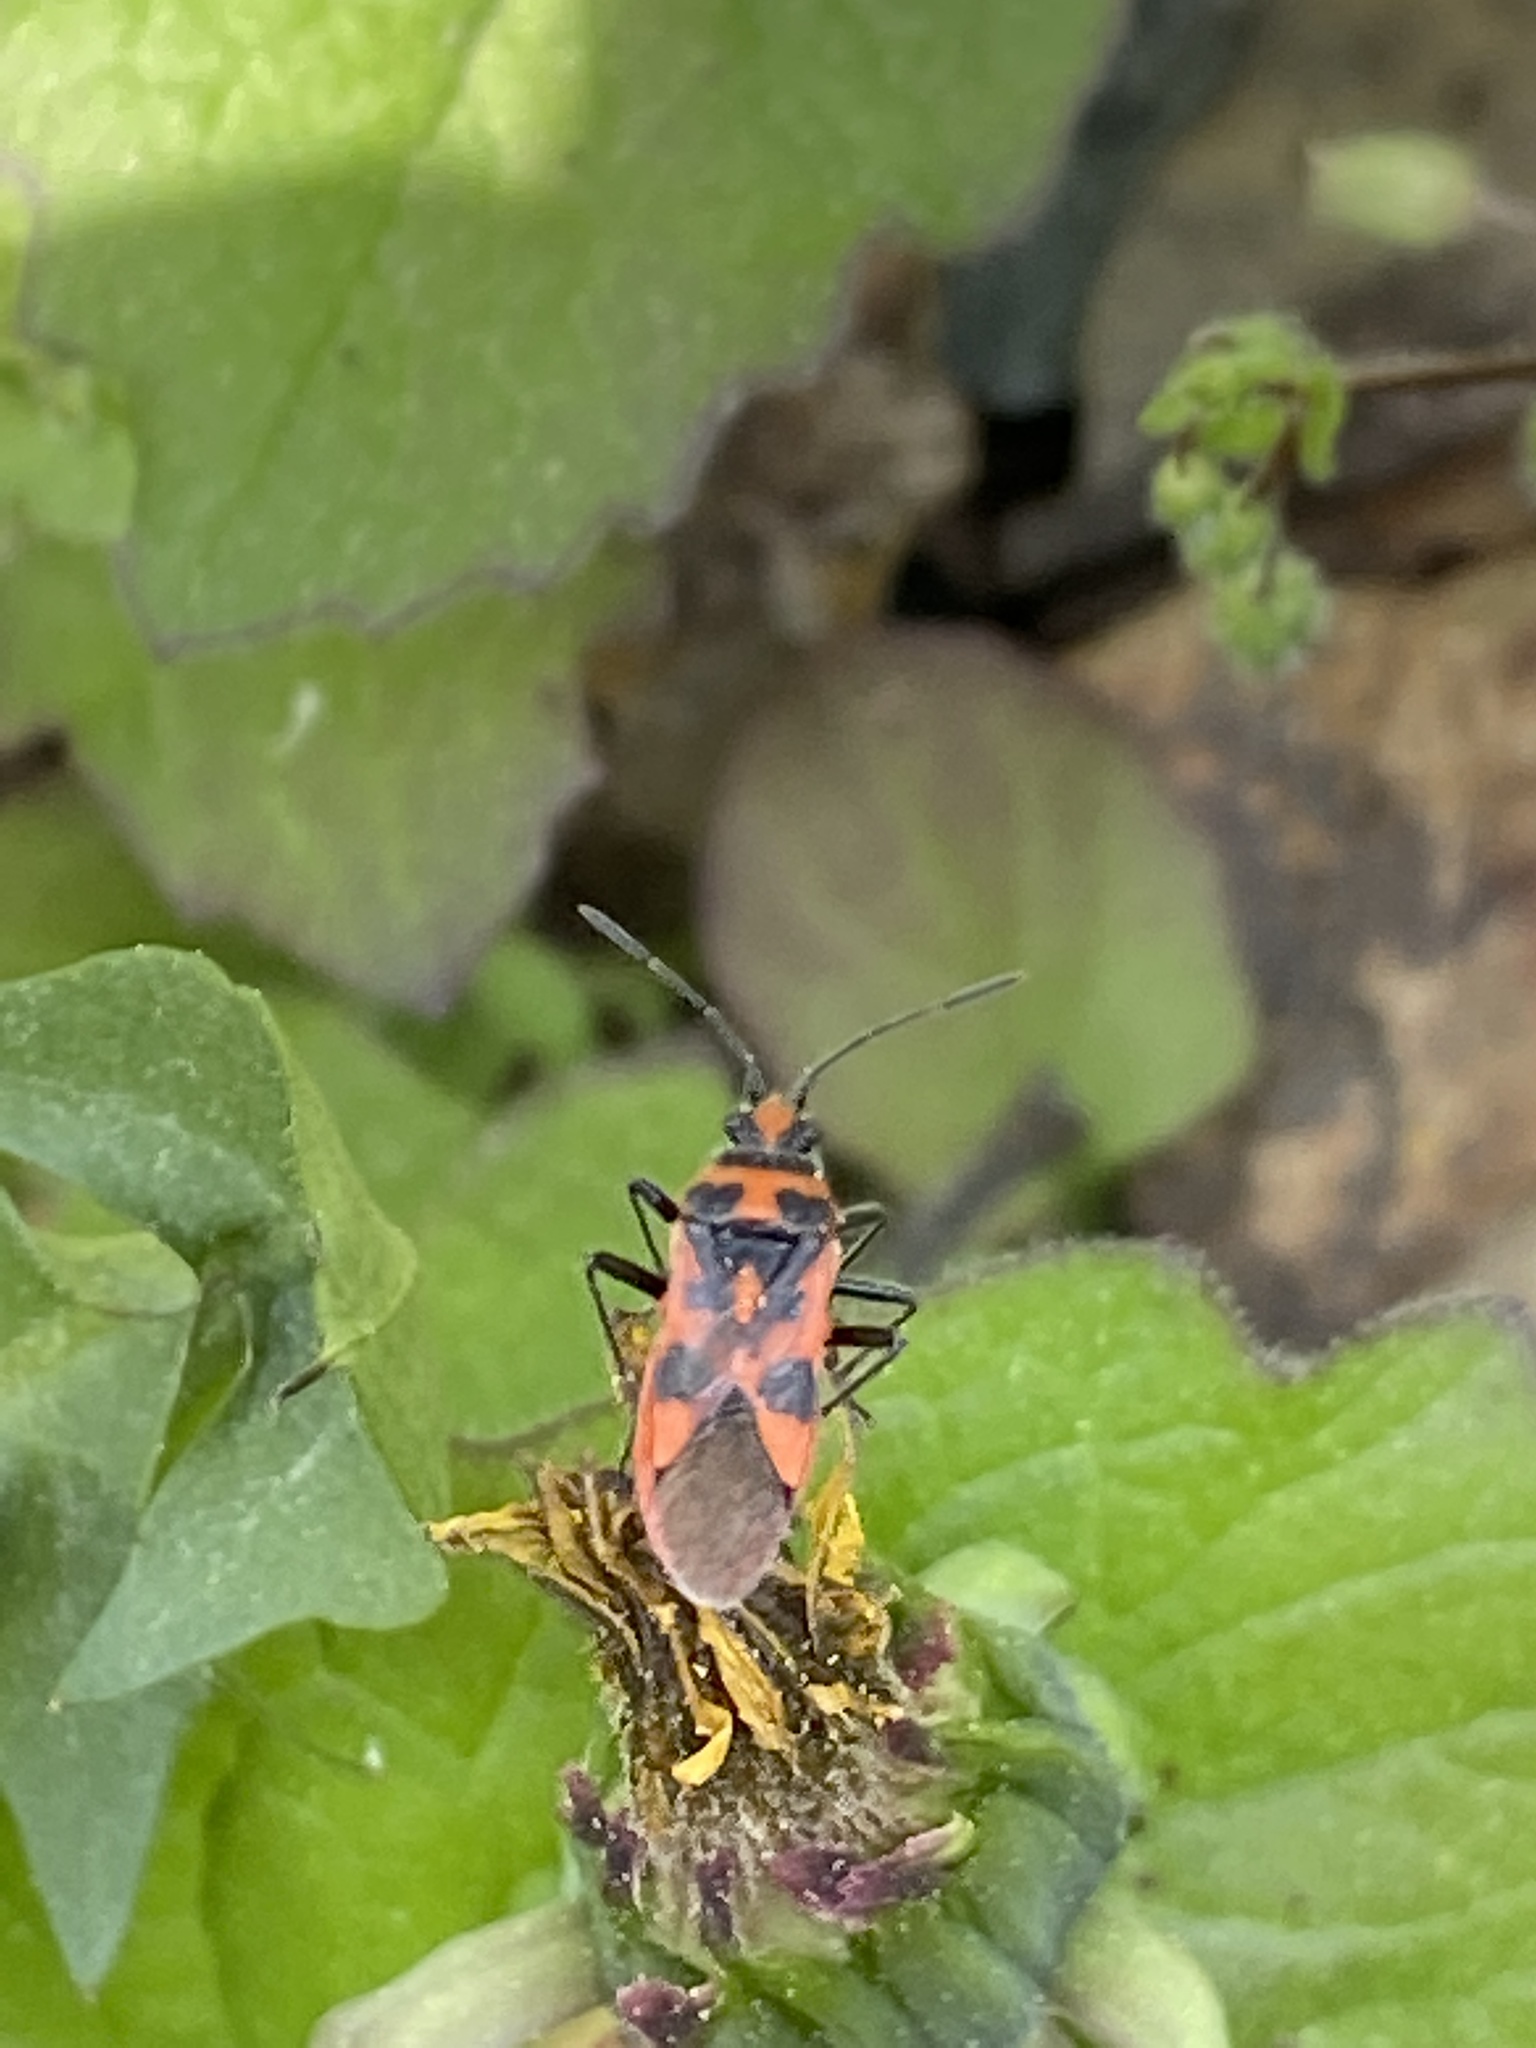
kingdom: Animalia
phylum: Arthropoda
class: Insecta
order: Hemiptera
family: Rhopalidae
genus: Corizus
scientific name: Corizus hyoscyami
